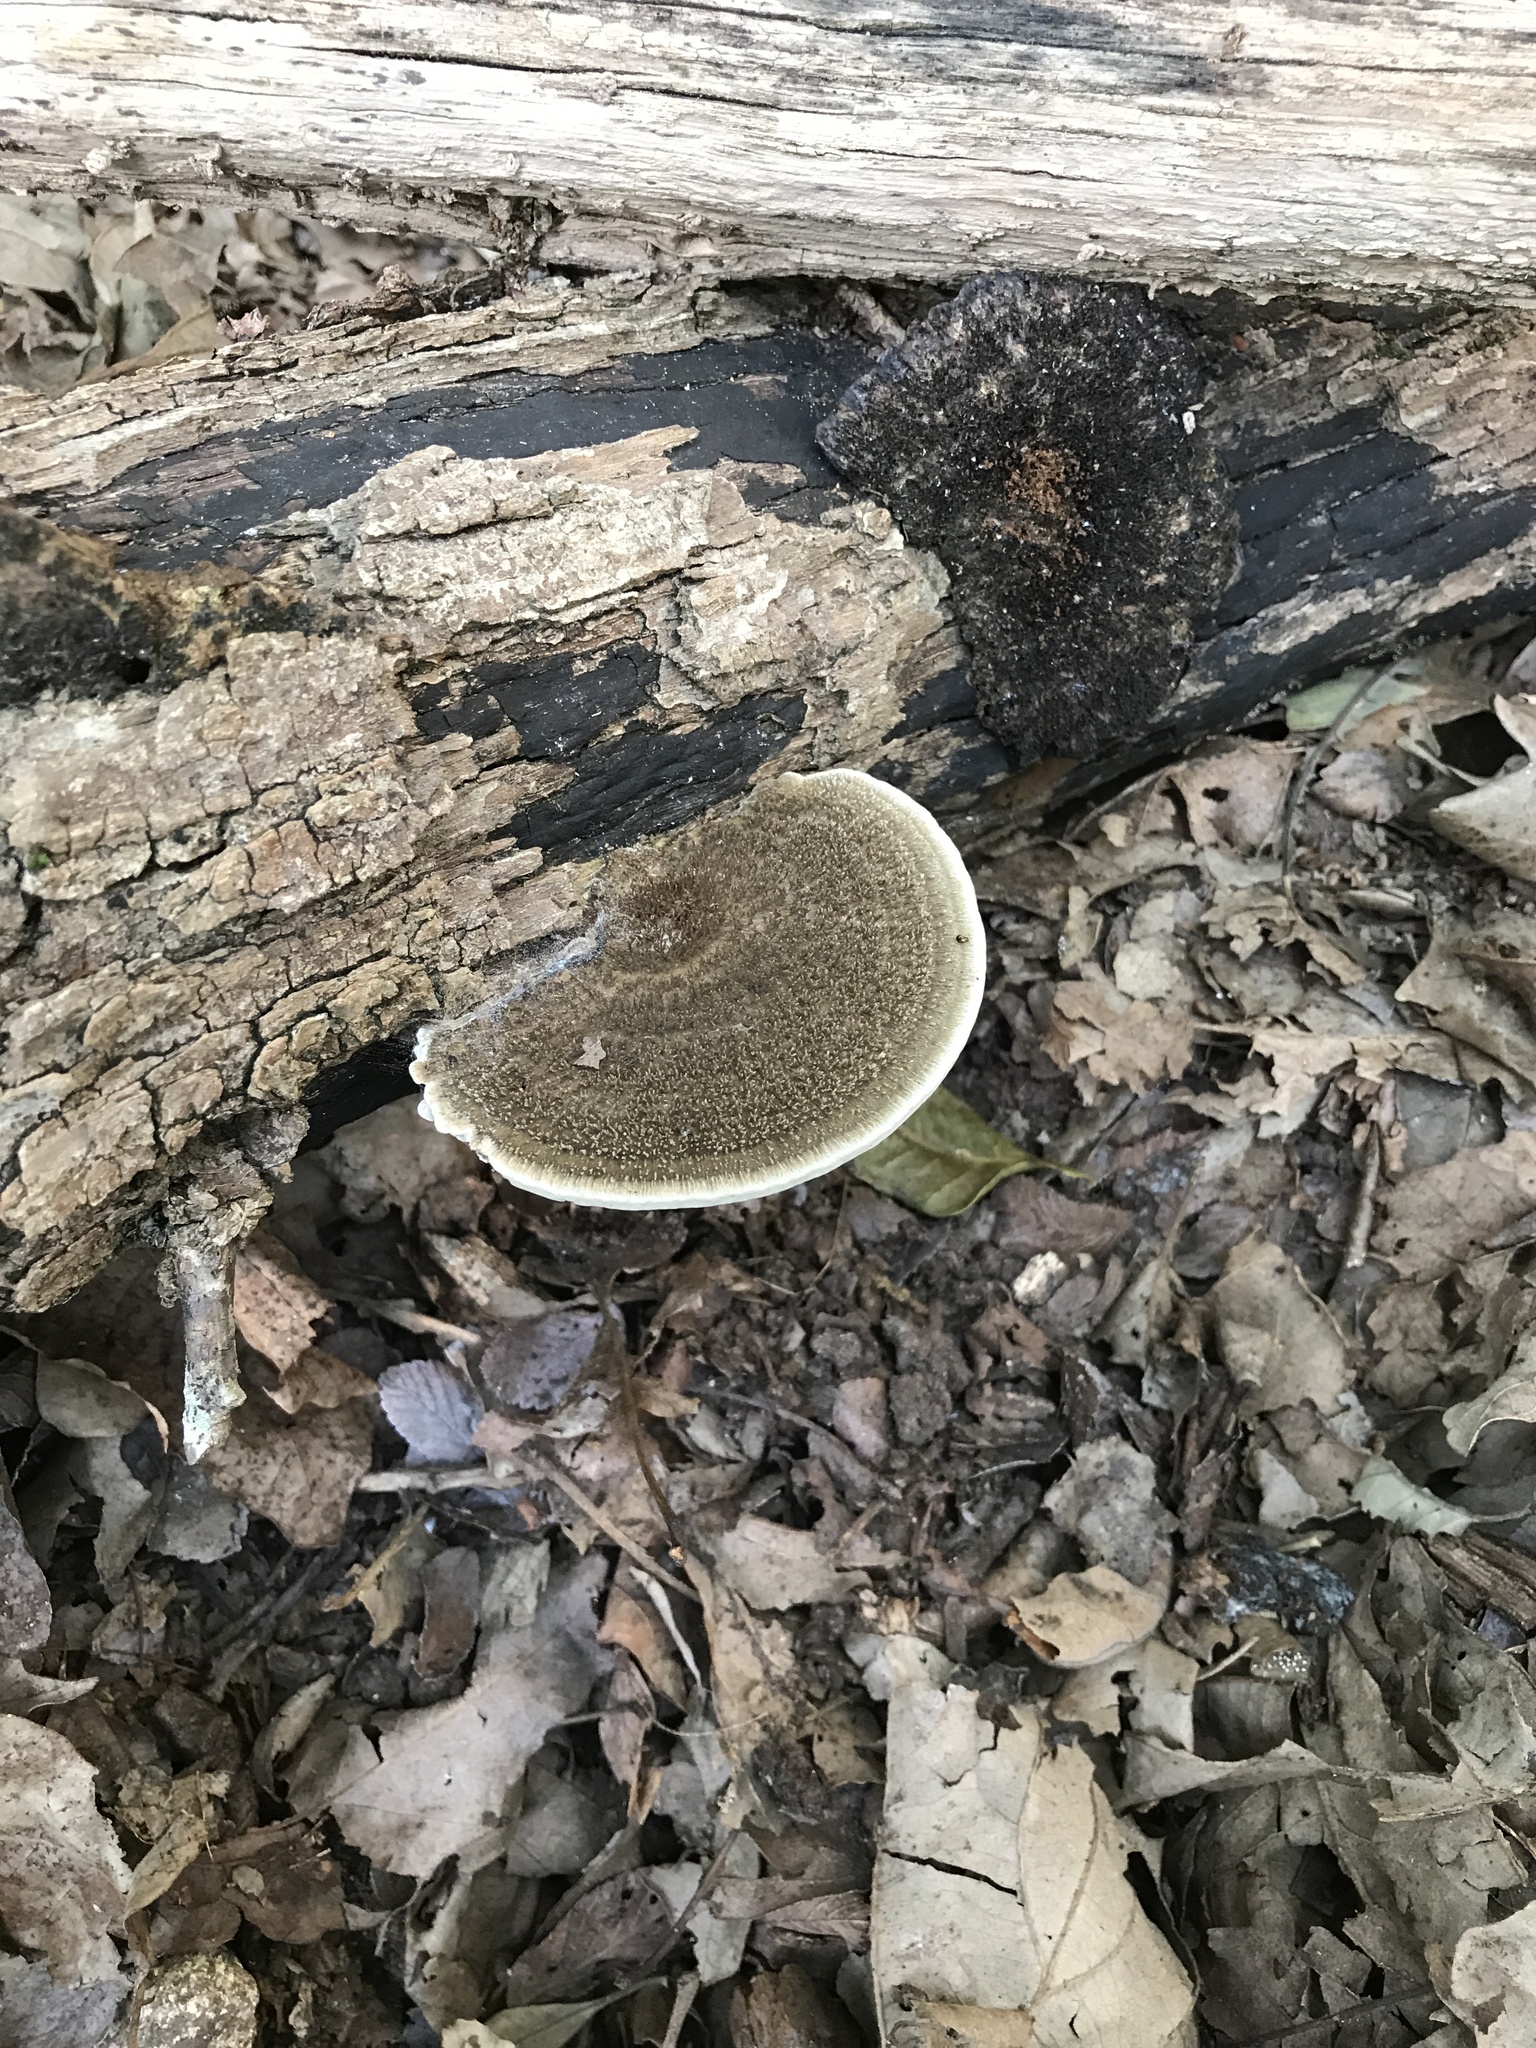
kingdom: Fungi
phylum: Basidiomycota
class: Agaricomycetes
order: Polyporales
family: Cerrenaceae
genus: Cerrena
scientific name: Cerrena hydnoides
